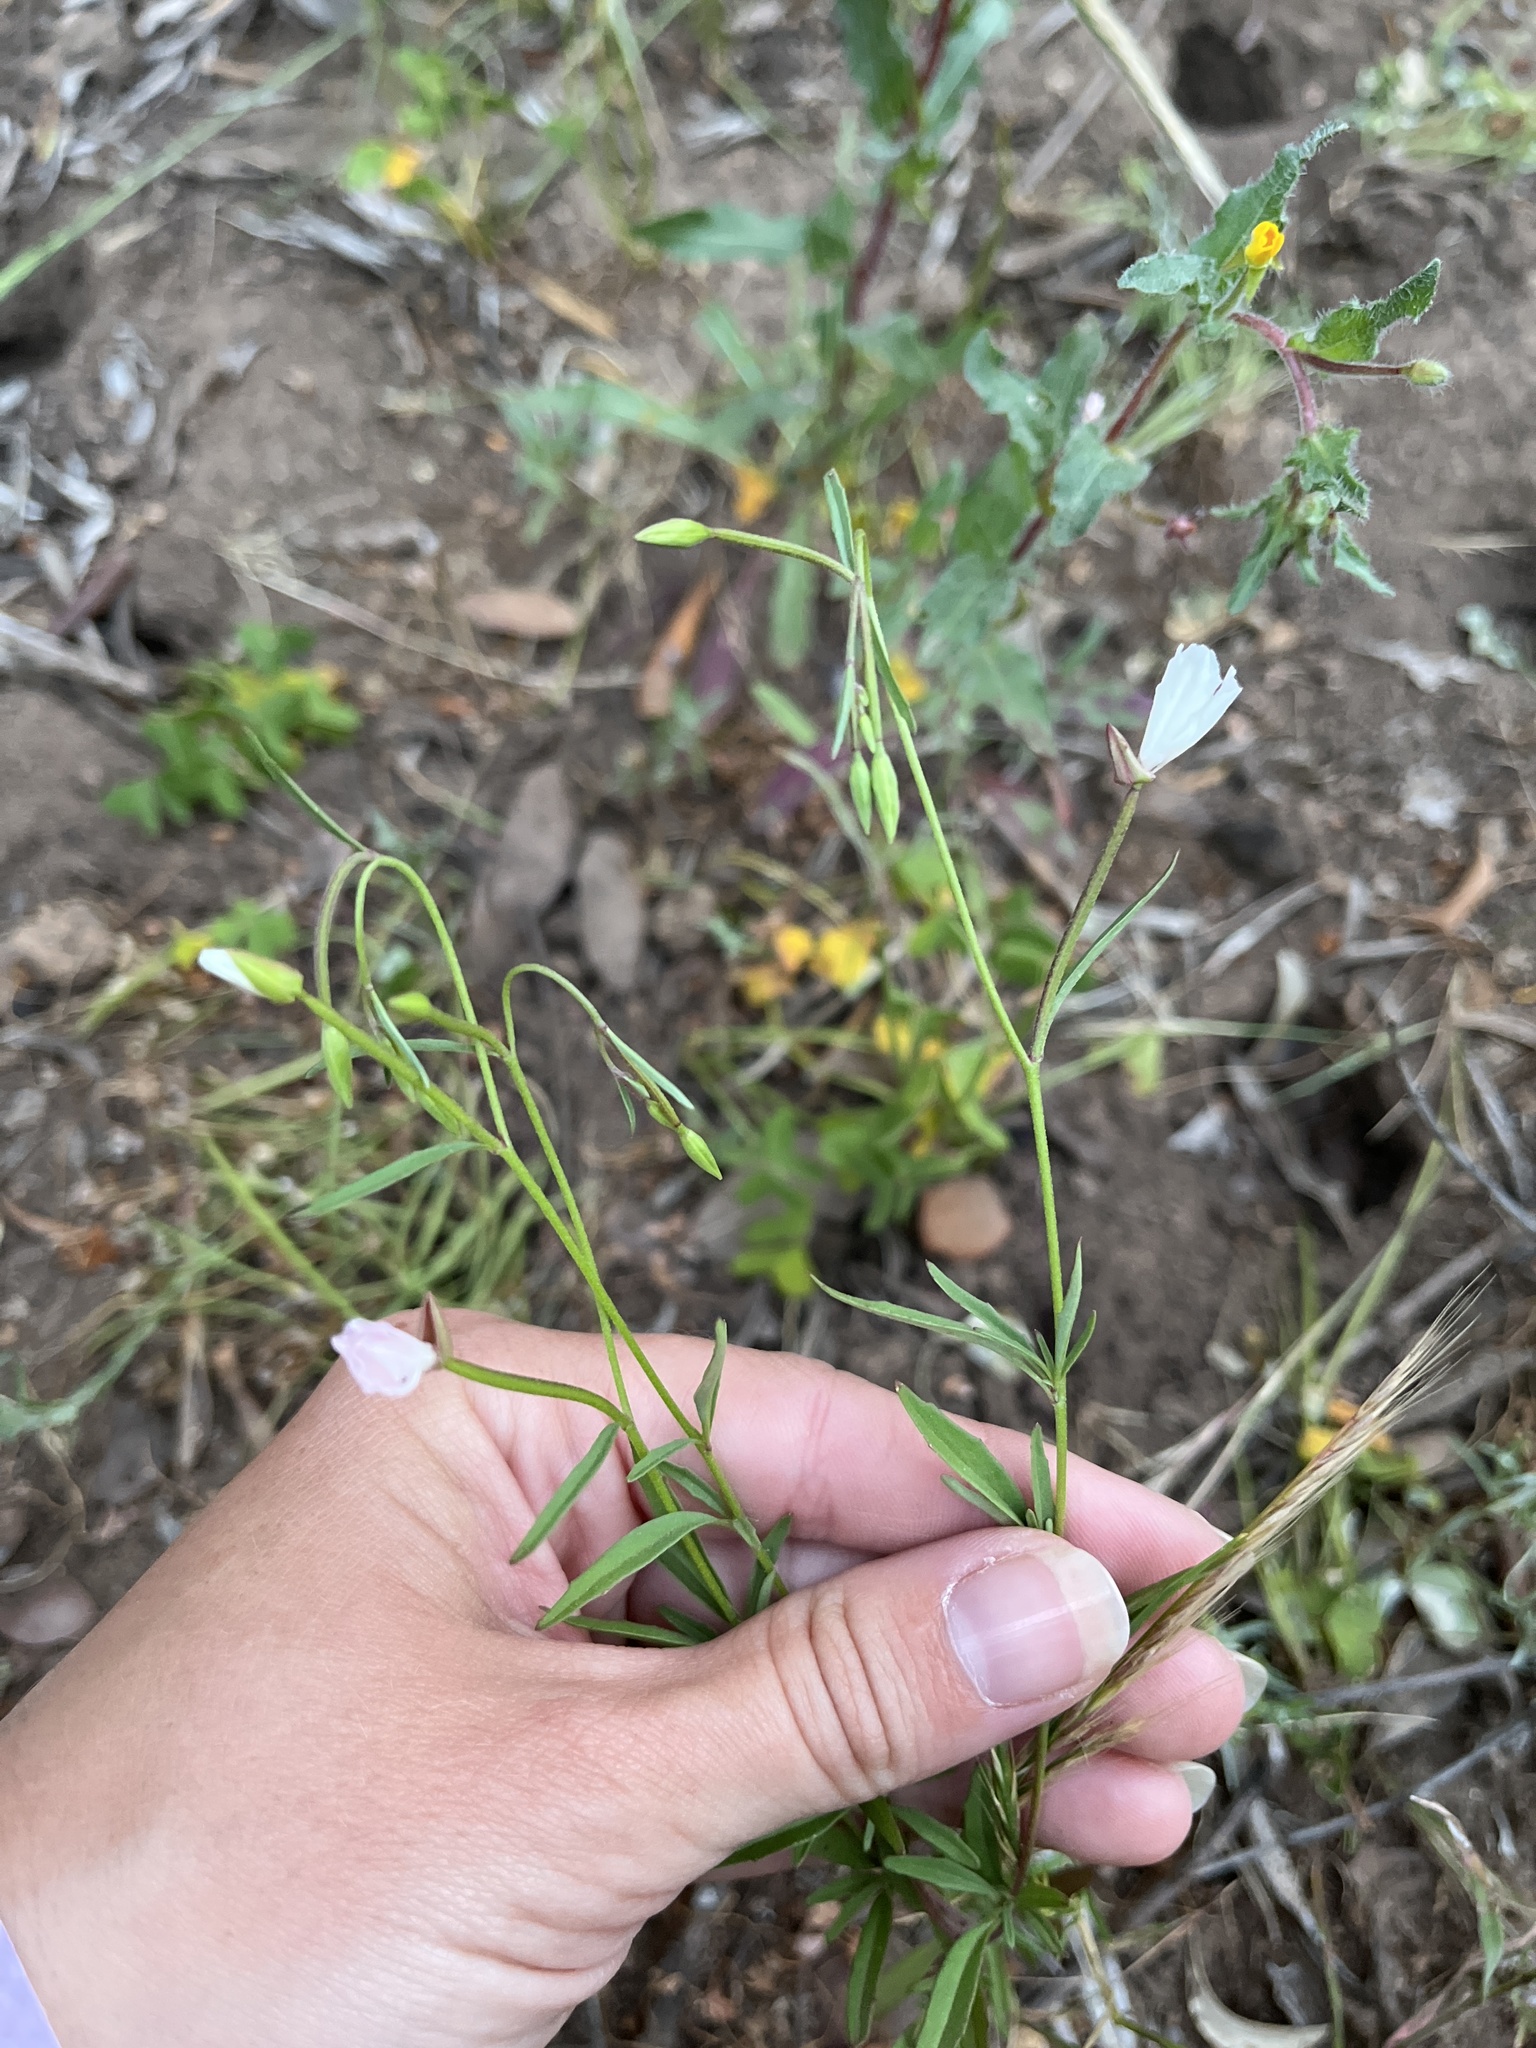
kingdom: Plantae
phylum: Tracheophyta
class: Magnoliopsida
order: Myrtales
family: Onagraceae
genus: Clarkia
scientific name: Clarkia similis
